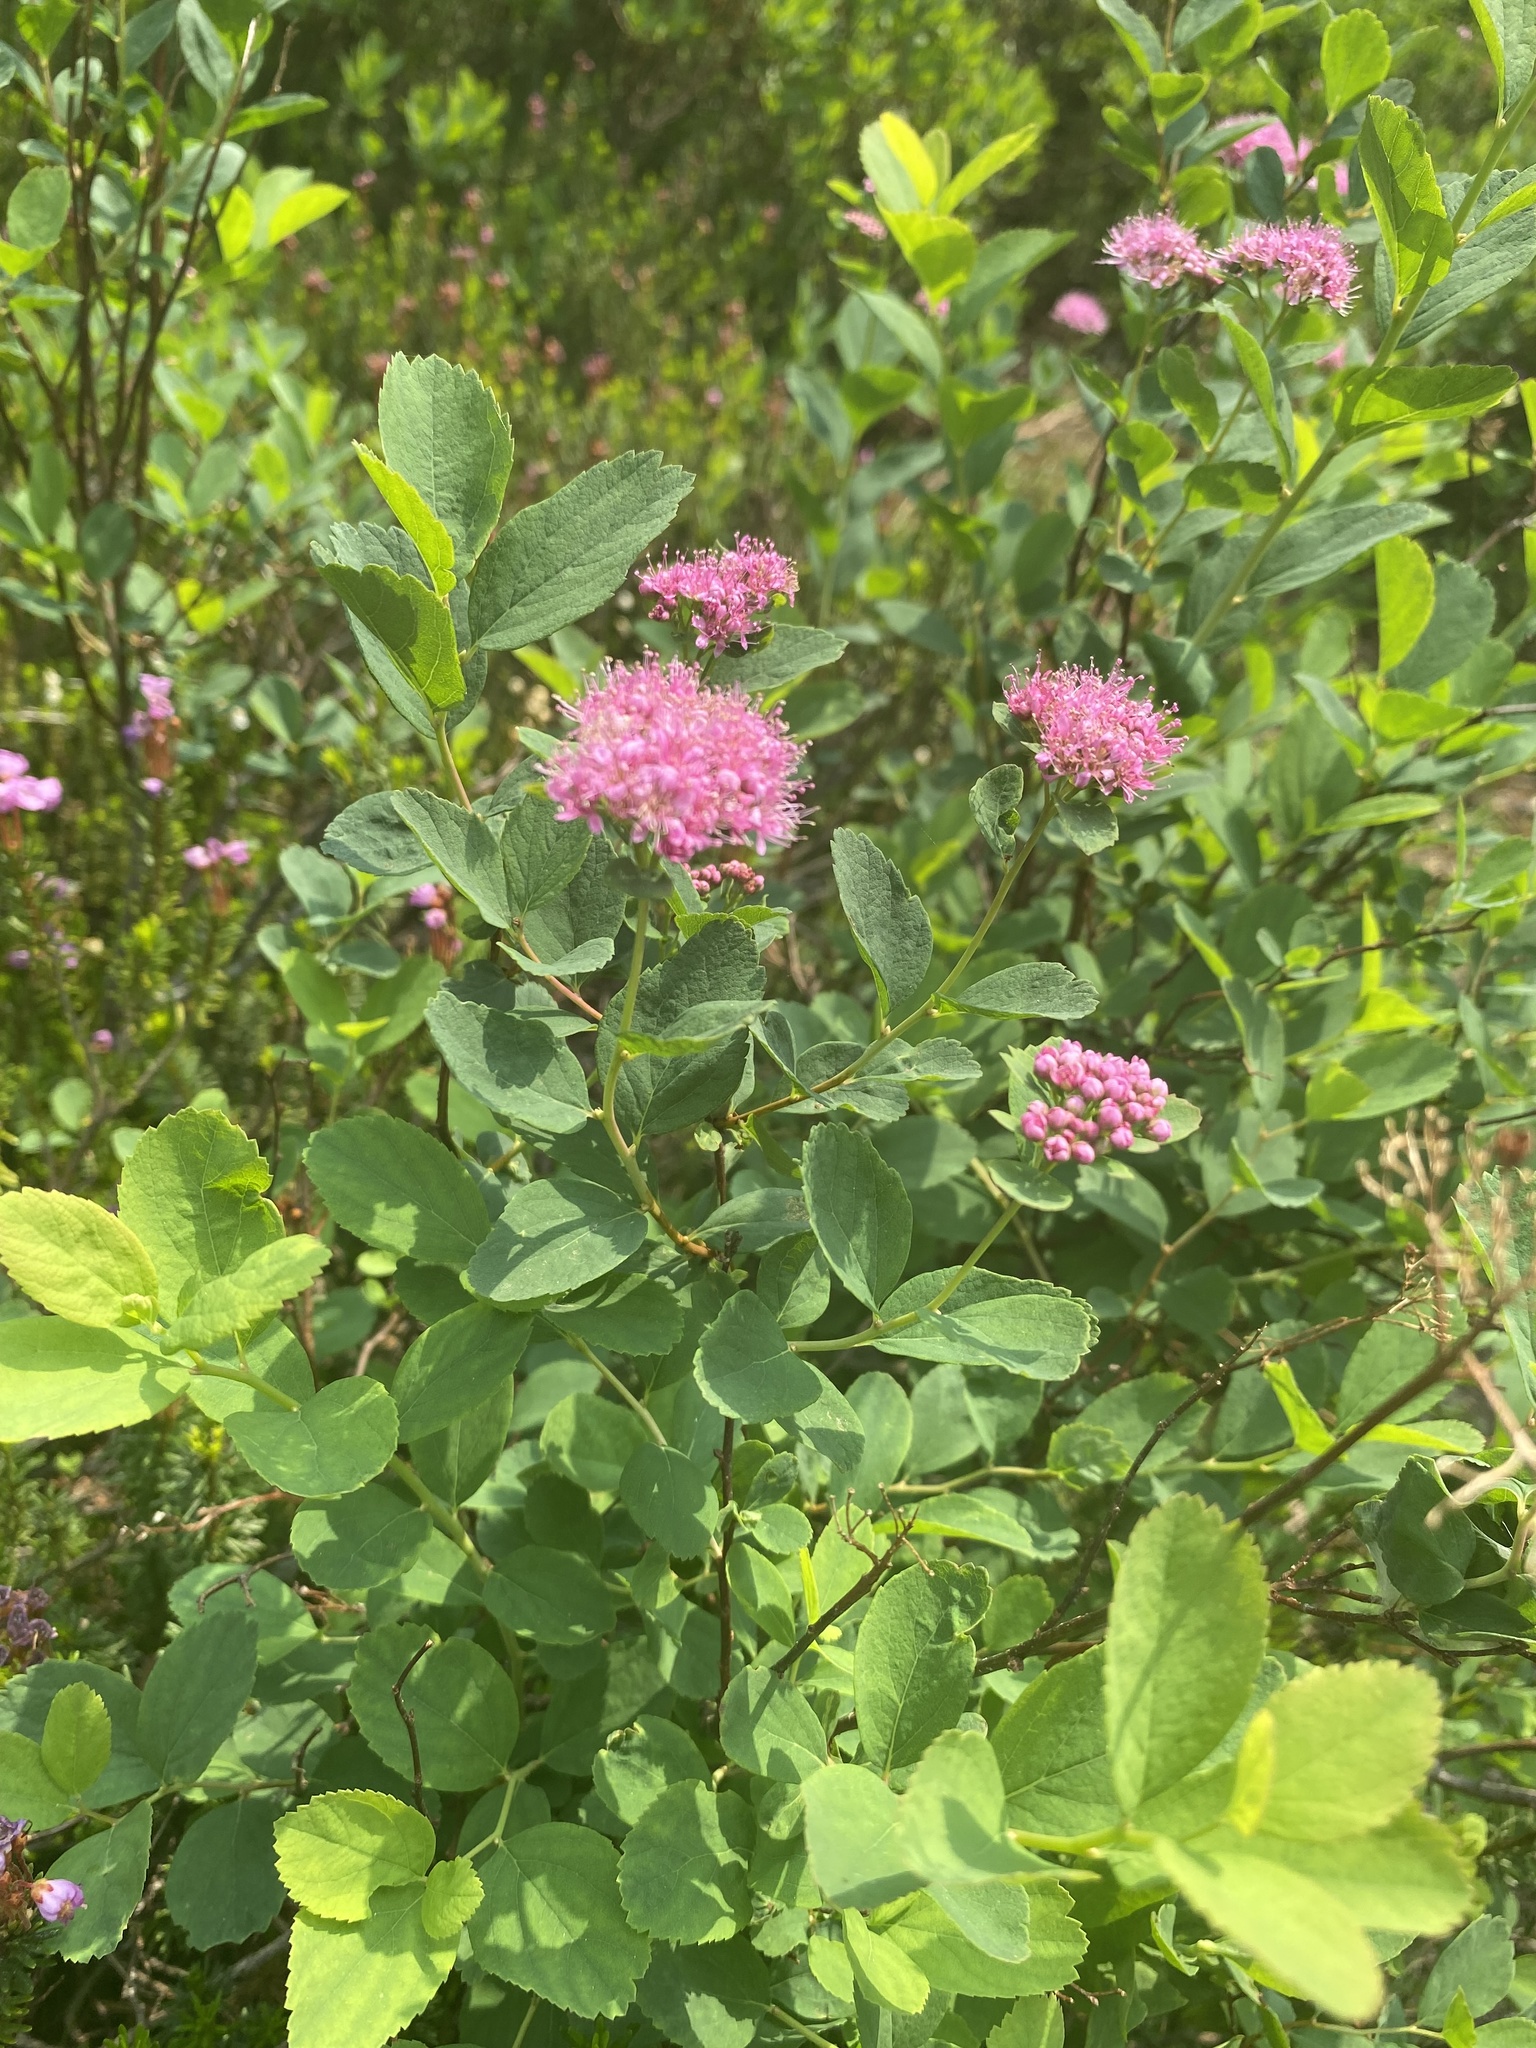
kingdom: Plantae
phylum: Tracheophyta
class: Magnoliopsida
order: Rosales
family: Rosaceae
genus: Spiraea
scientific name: Spiraea splendens
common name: Subalpine meadowsweet
